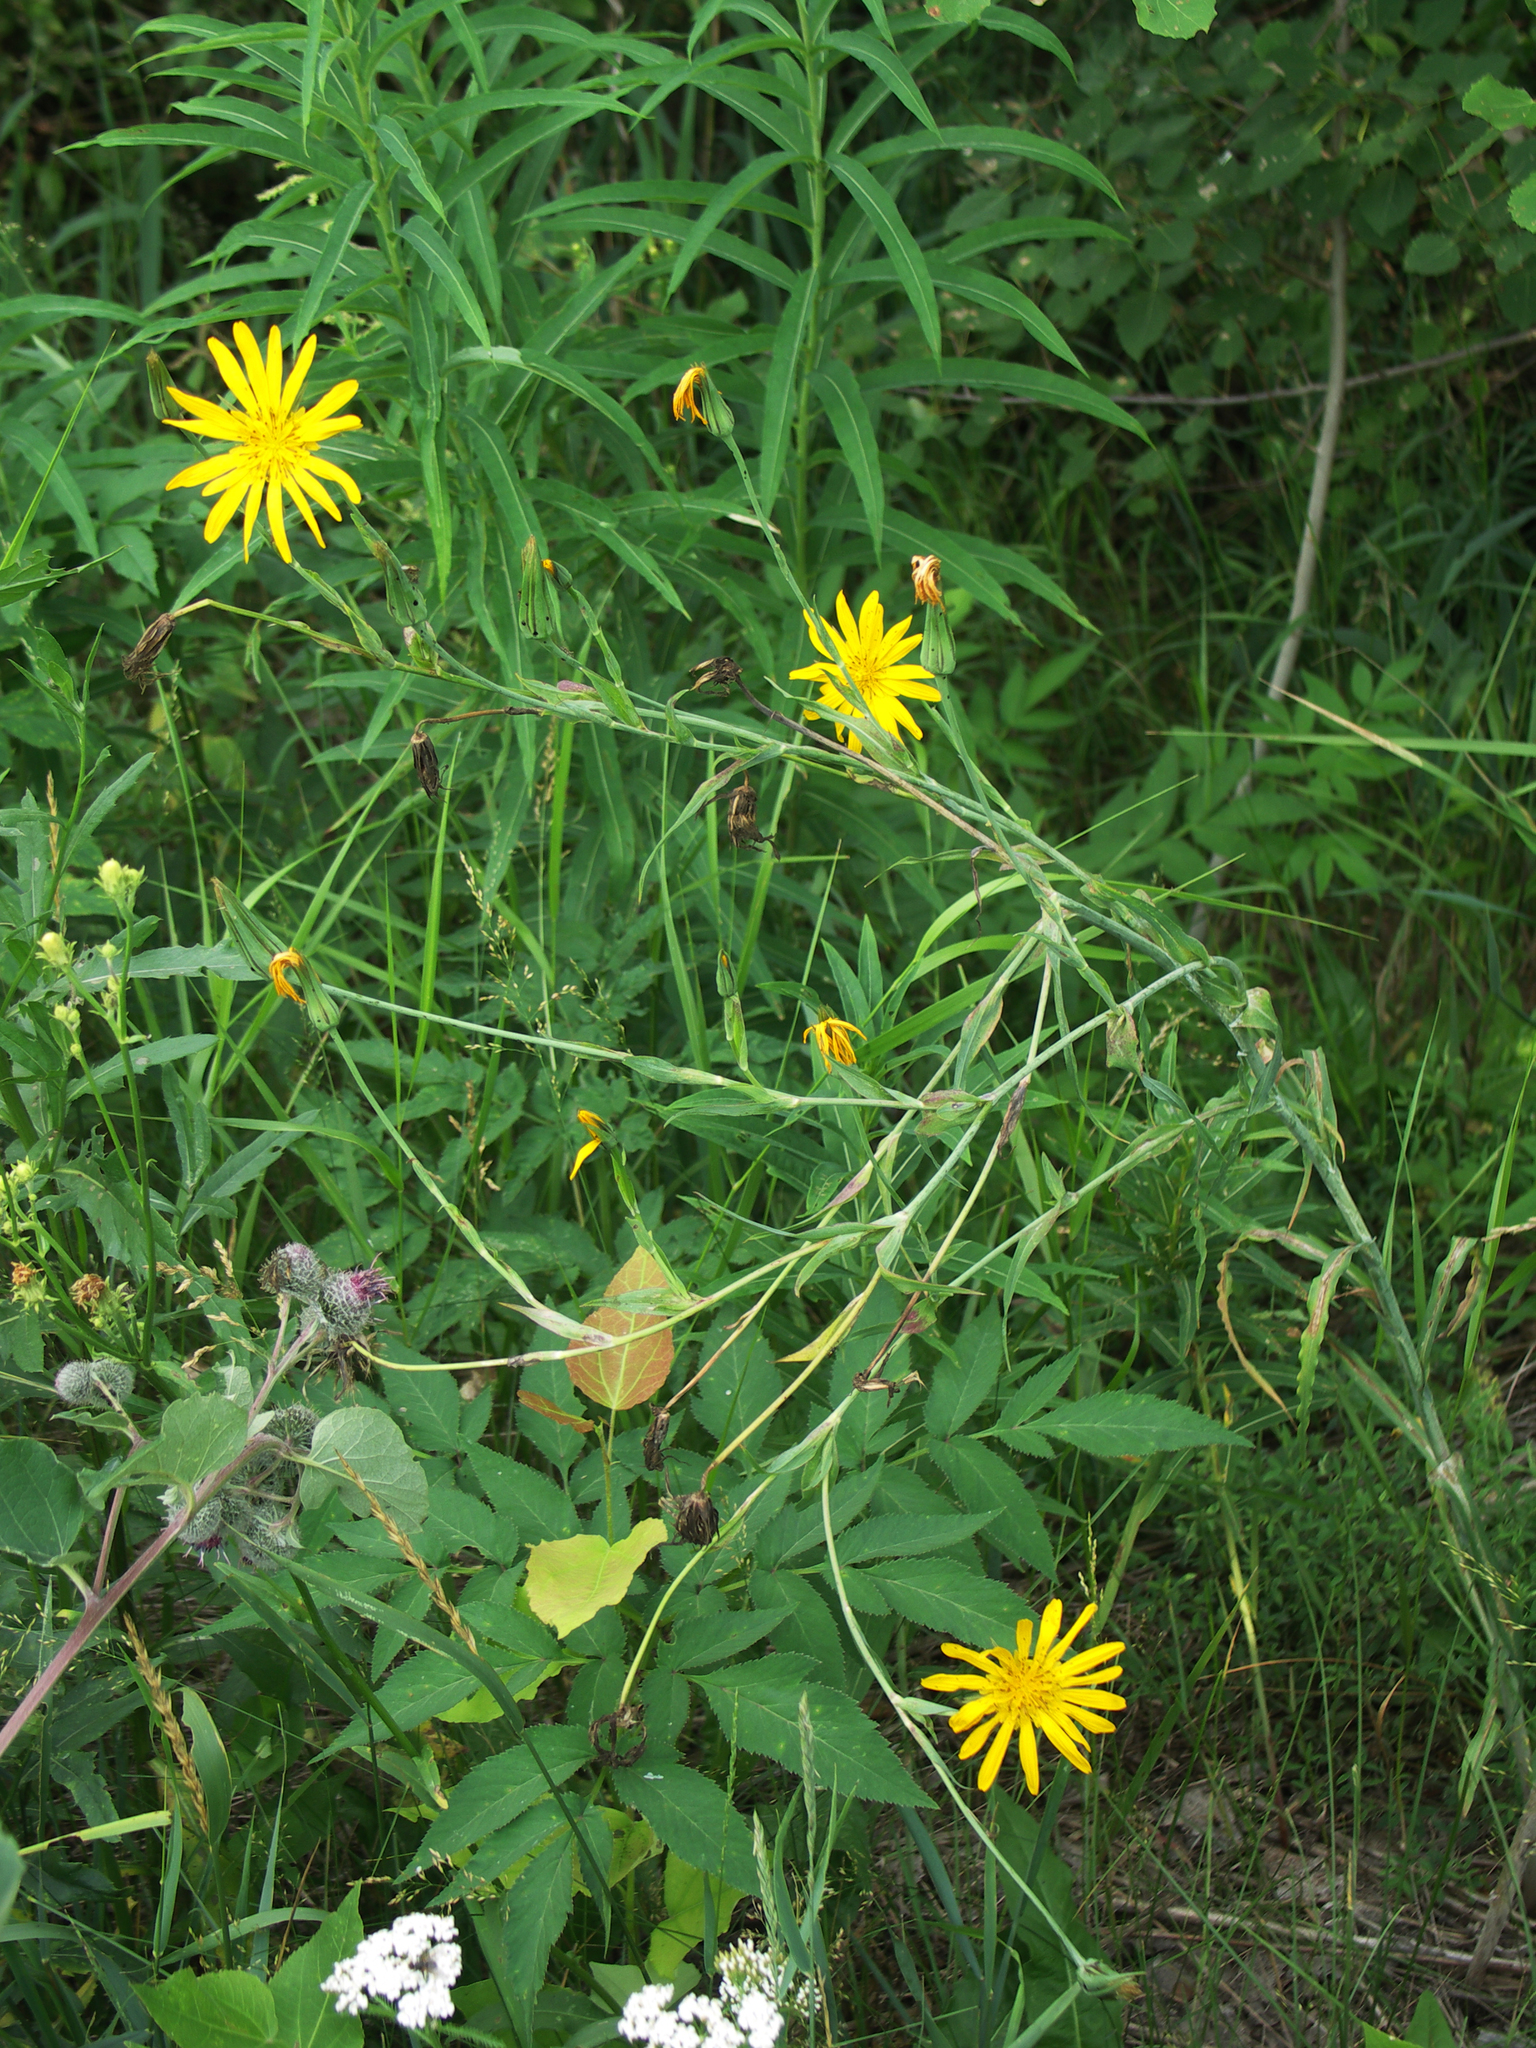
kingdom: Plantae
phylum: Tracheophyta
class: Magnoliopsida
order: Asterales
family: Asteraceae
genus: Tragopogon
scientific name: Tragopogon orientalis
